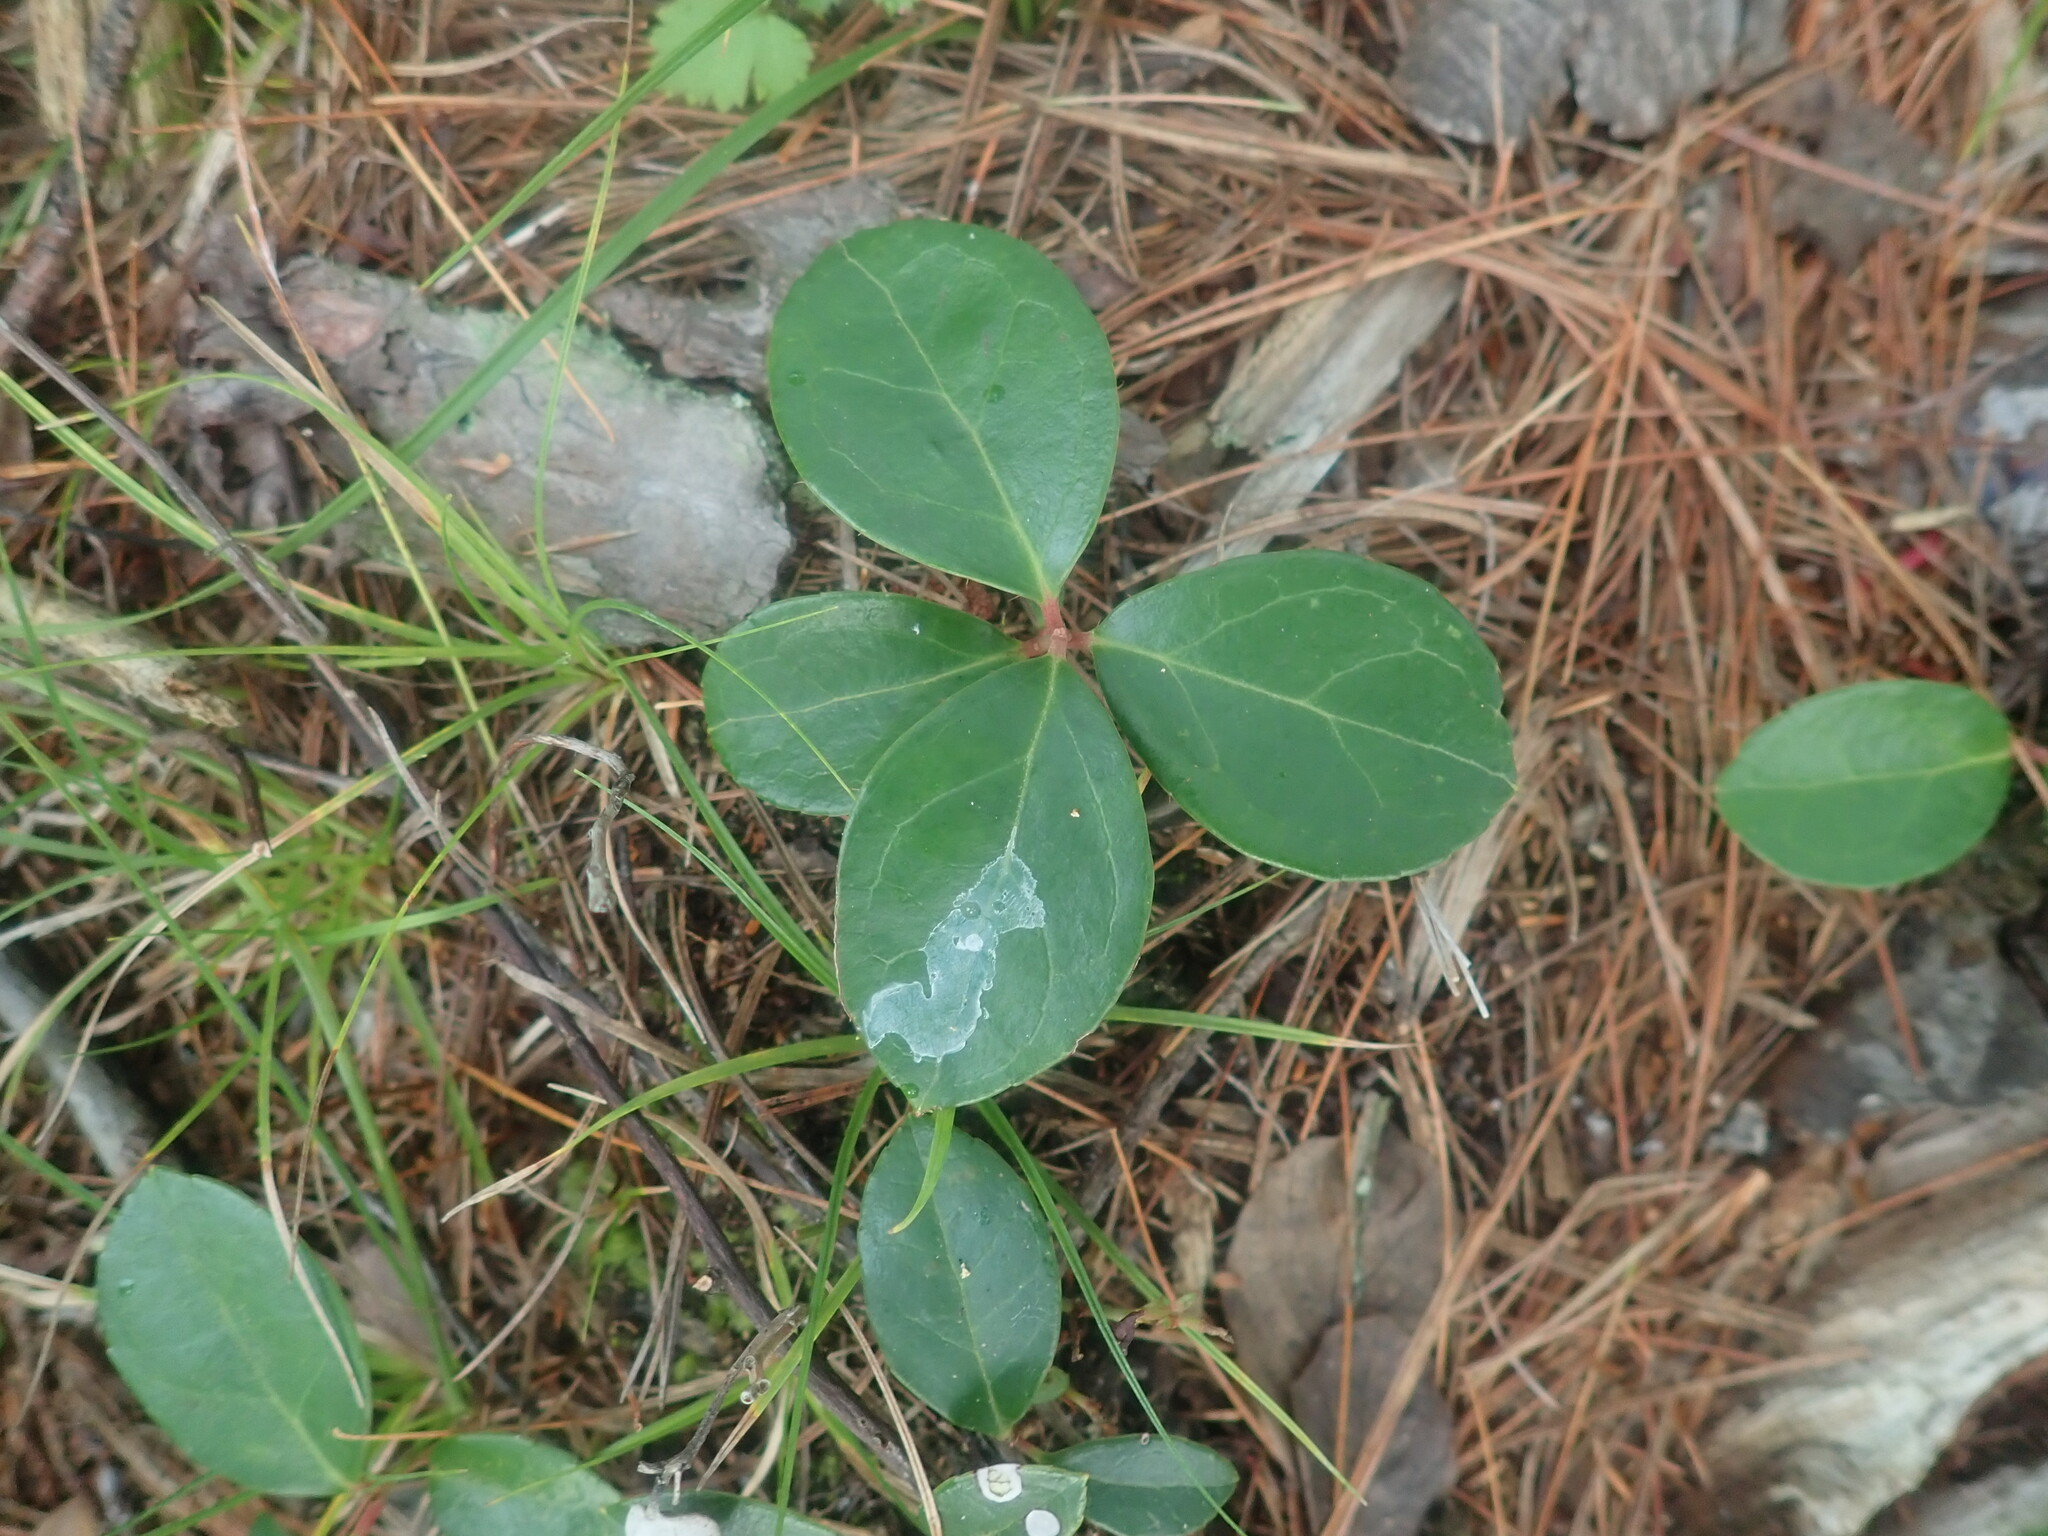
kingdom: Plantae
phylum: Tracheophyta
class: Magnoliopsida
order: Ericales
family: Ericaceae
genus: Gaultheria
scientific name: Gaultheria procumbens
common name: Checkerberry
